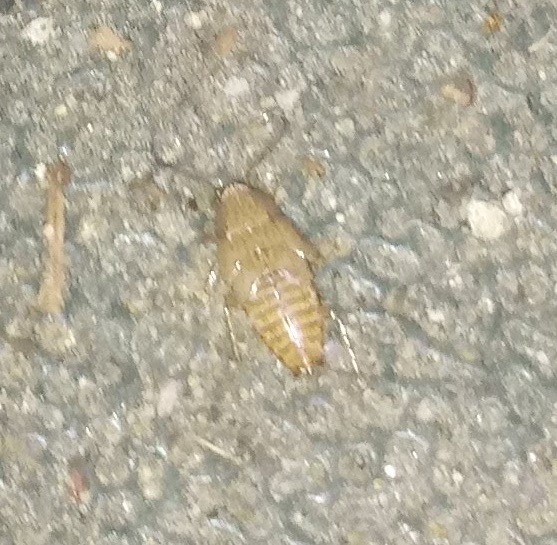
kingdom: Animalia
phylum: Arthropoda
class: Insecta
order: Blattodea
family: Ectobiidae
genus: Ectobius
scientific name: Ectobius pallidus
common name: Tawny cockroach
